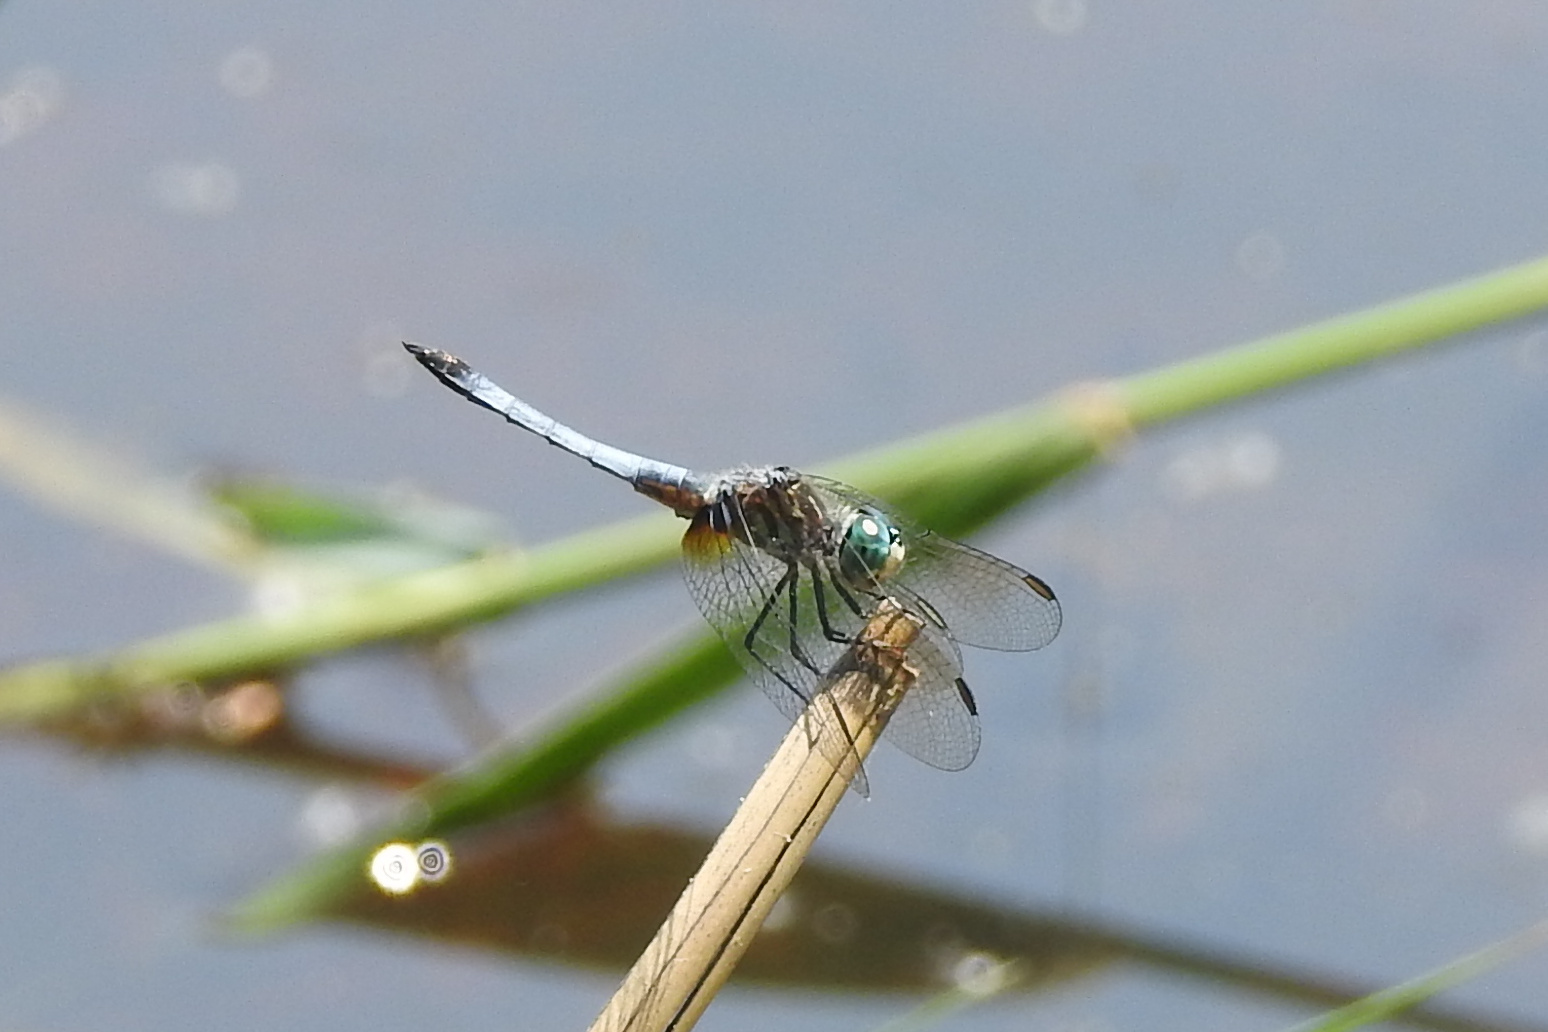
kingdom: Animalia
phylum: Arthropoda
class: Insecta
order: Odonata
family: Libellulidae
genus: Pachydiplax
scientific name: Pachydiplax longipennis
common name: Blue dasher
